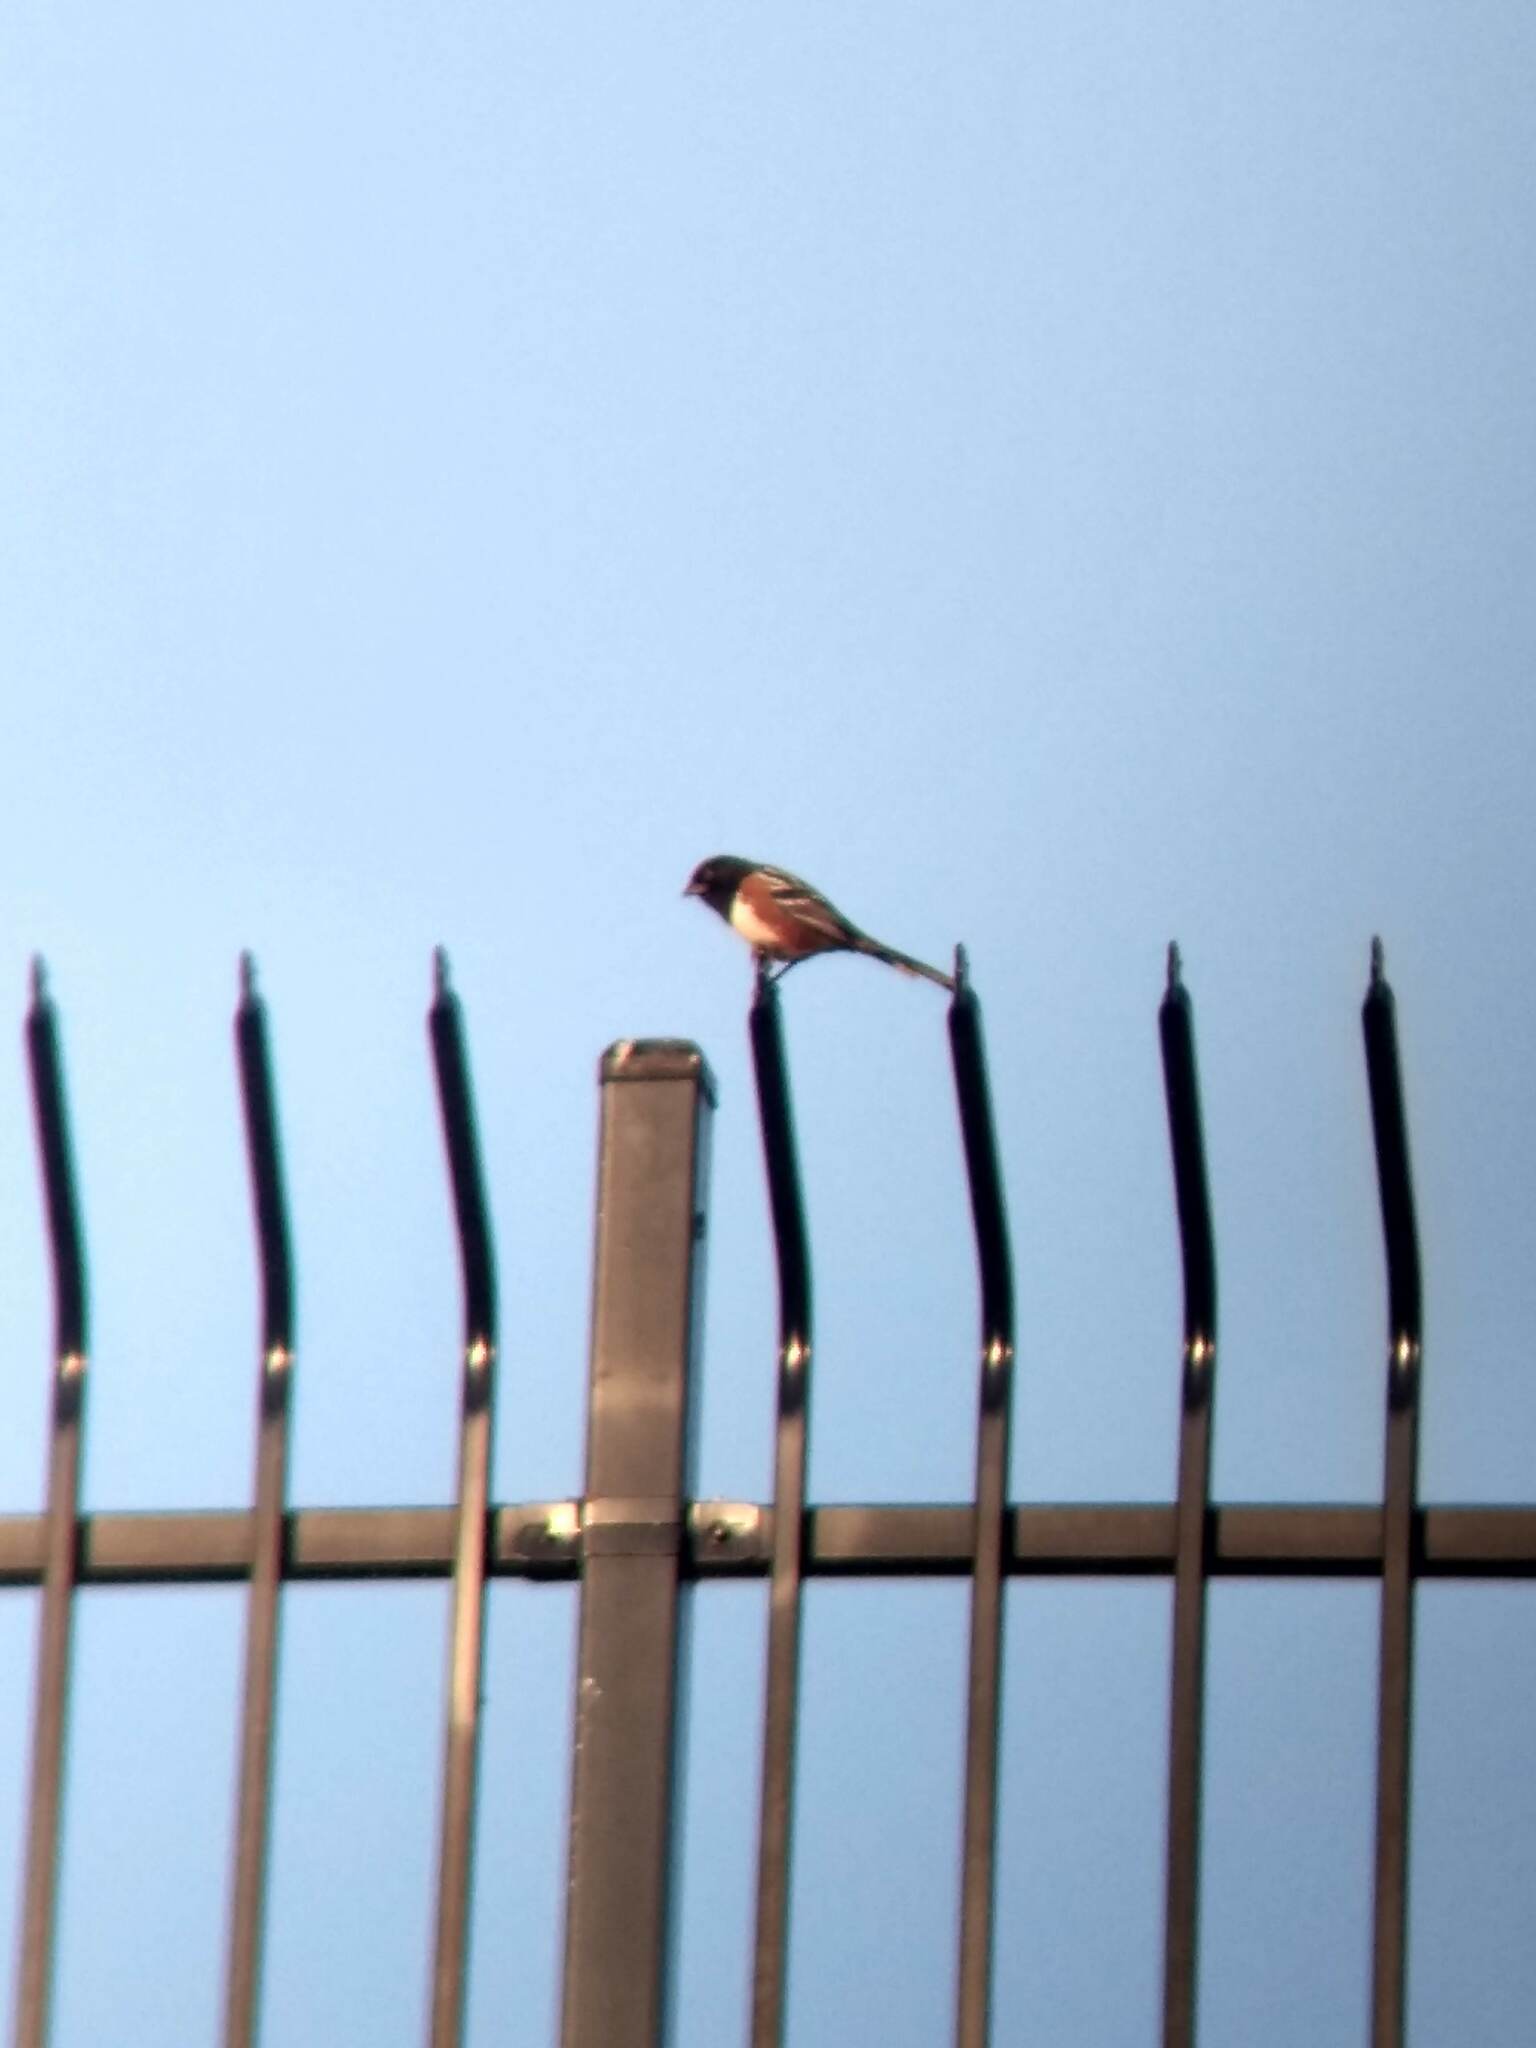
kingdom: Animalia
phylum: Chordata
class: Aves
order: Passeriformes
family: Passerellidae
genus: Pipilo
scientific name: Pipilo maculatus
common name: Spotted towhee
